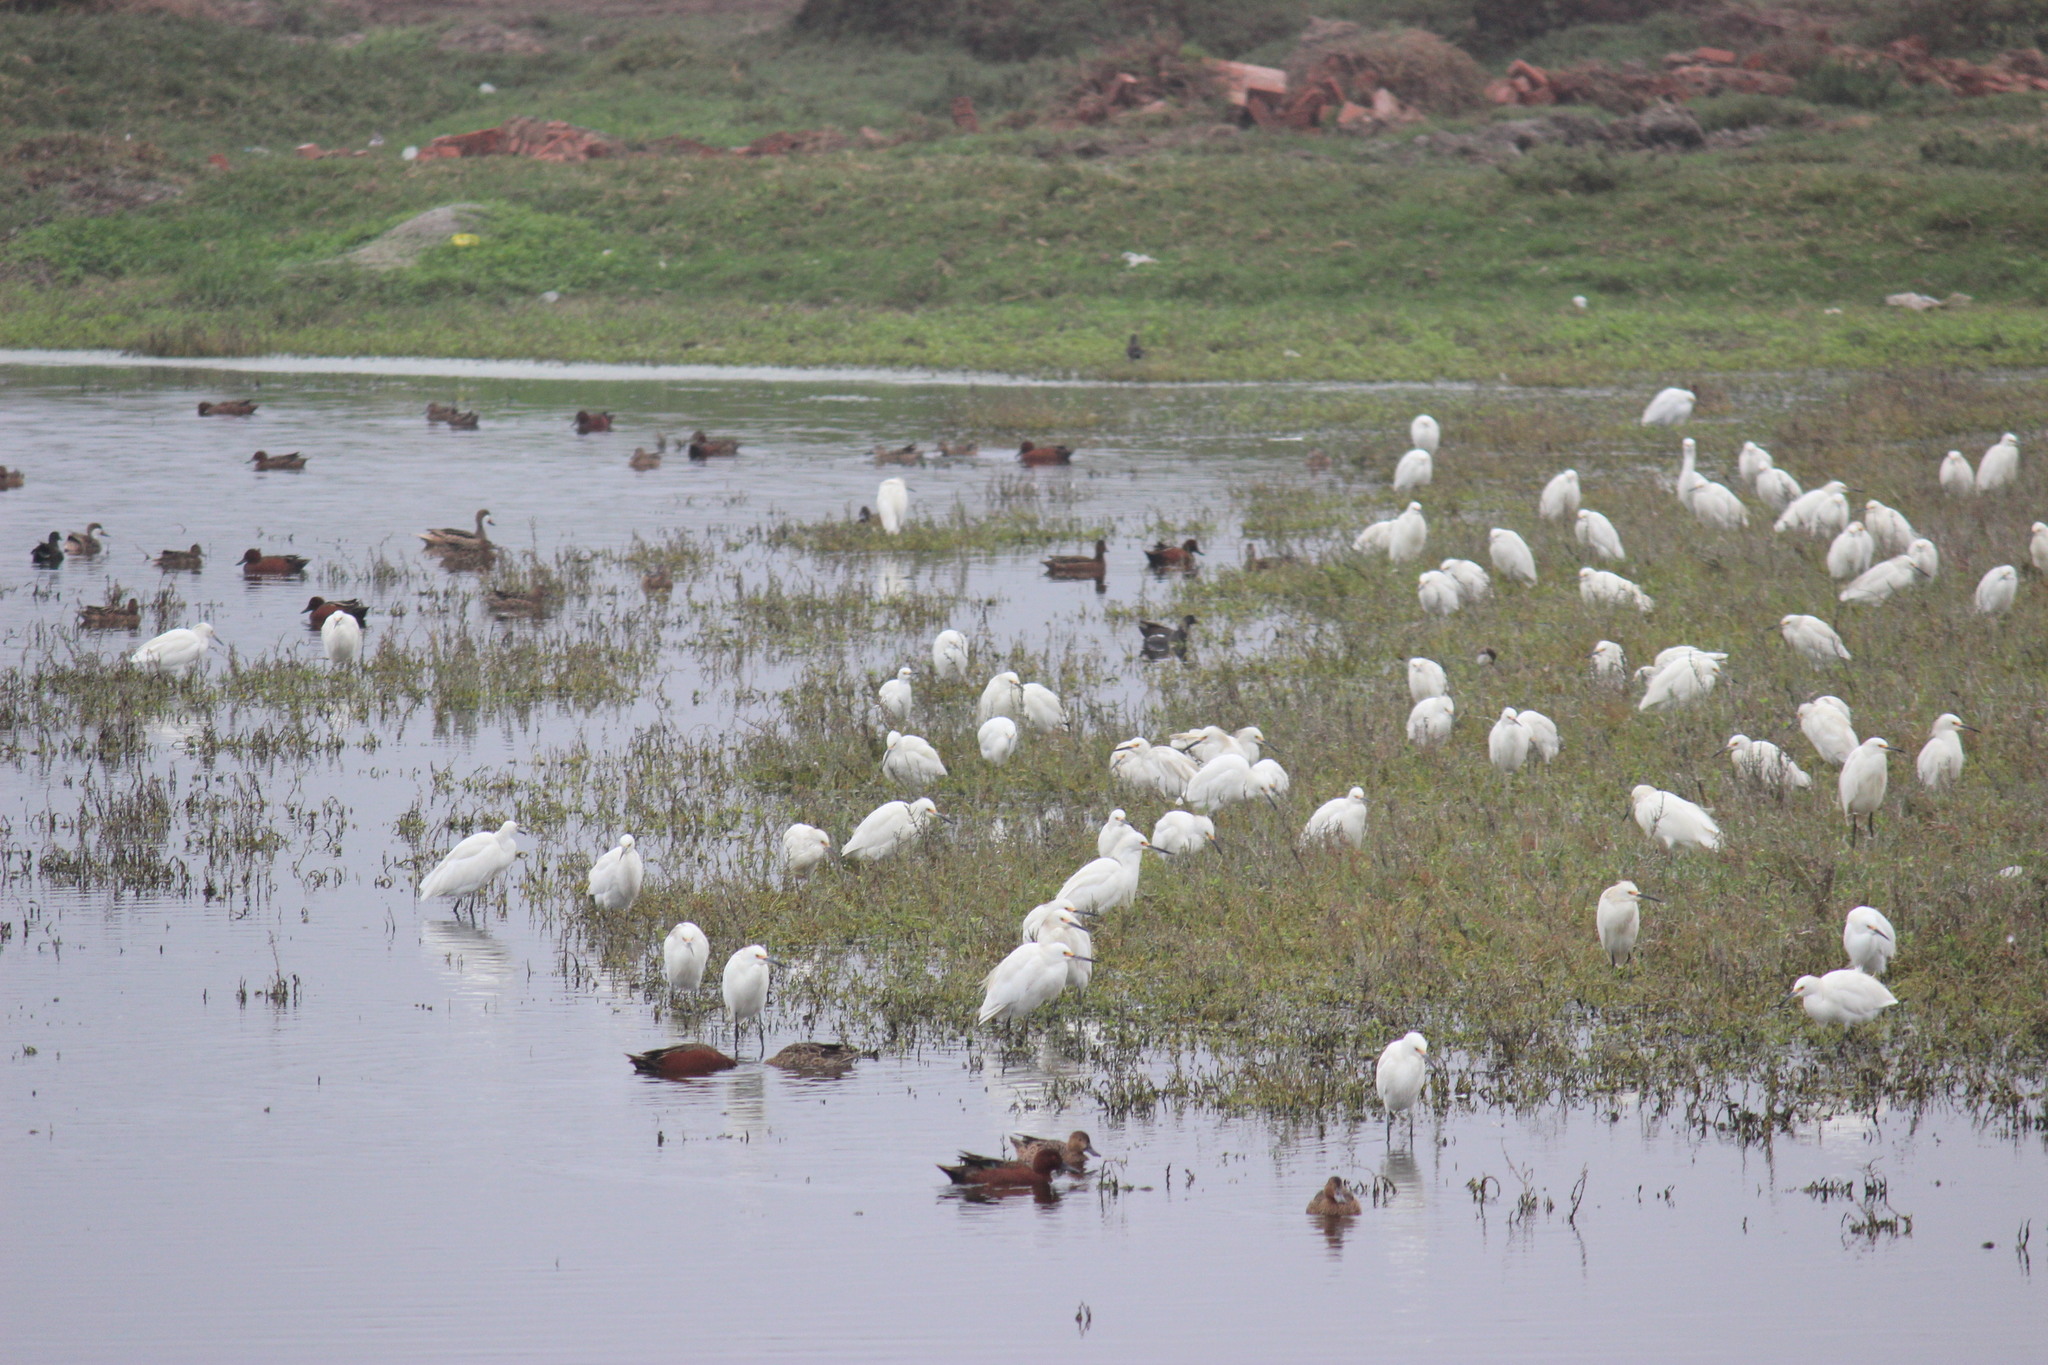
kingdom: Animalia
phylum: Chordata
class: Aves
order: Pelecaniformes
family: Ardeidae
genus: Egretta
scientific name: Egretta thula
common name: Snowy egret
